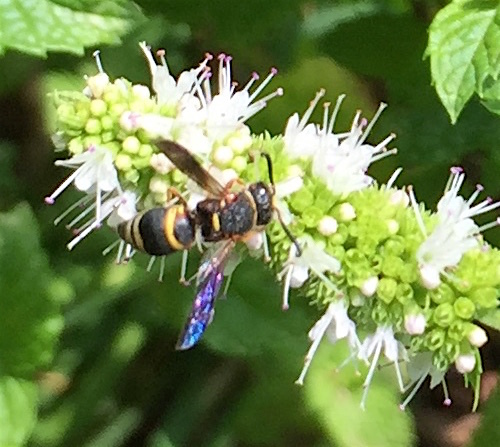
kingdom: Animalia
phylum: Arthropoda
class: Insecta
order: Hymenoptera
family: Eumenidae
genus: Euodynerus
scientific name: Euodynerus hidalgo
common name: Wasp
